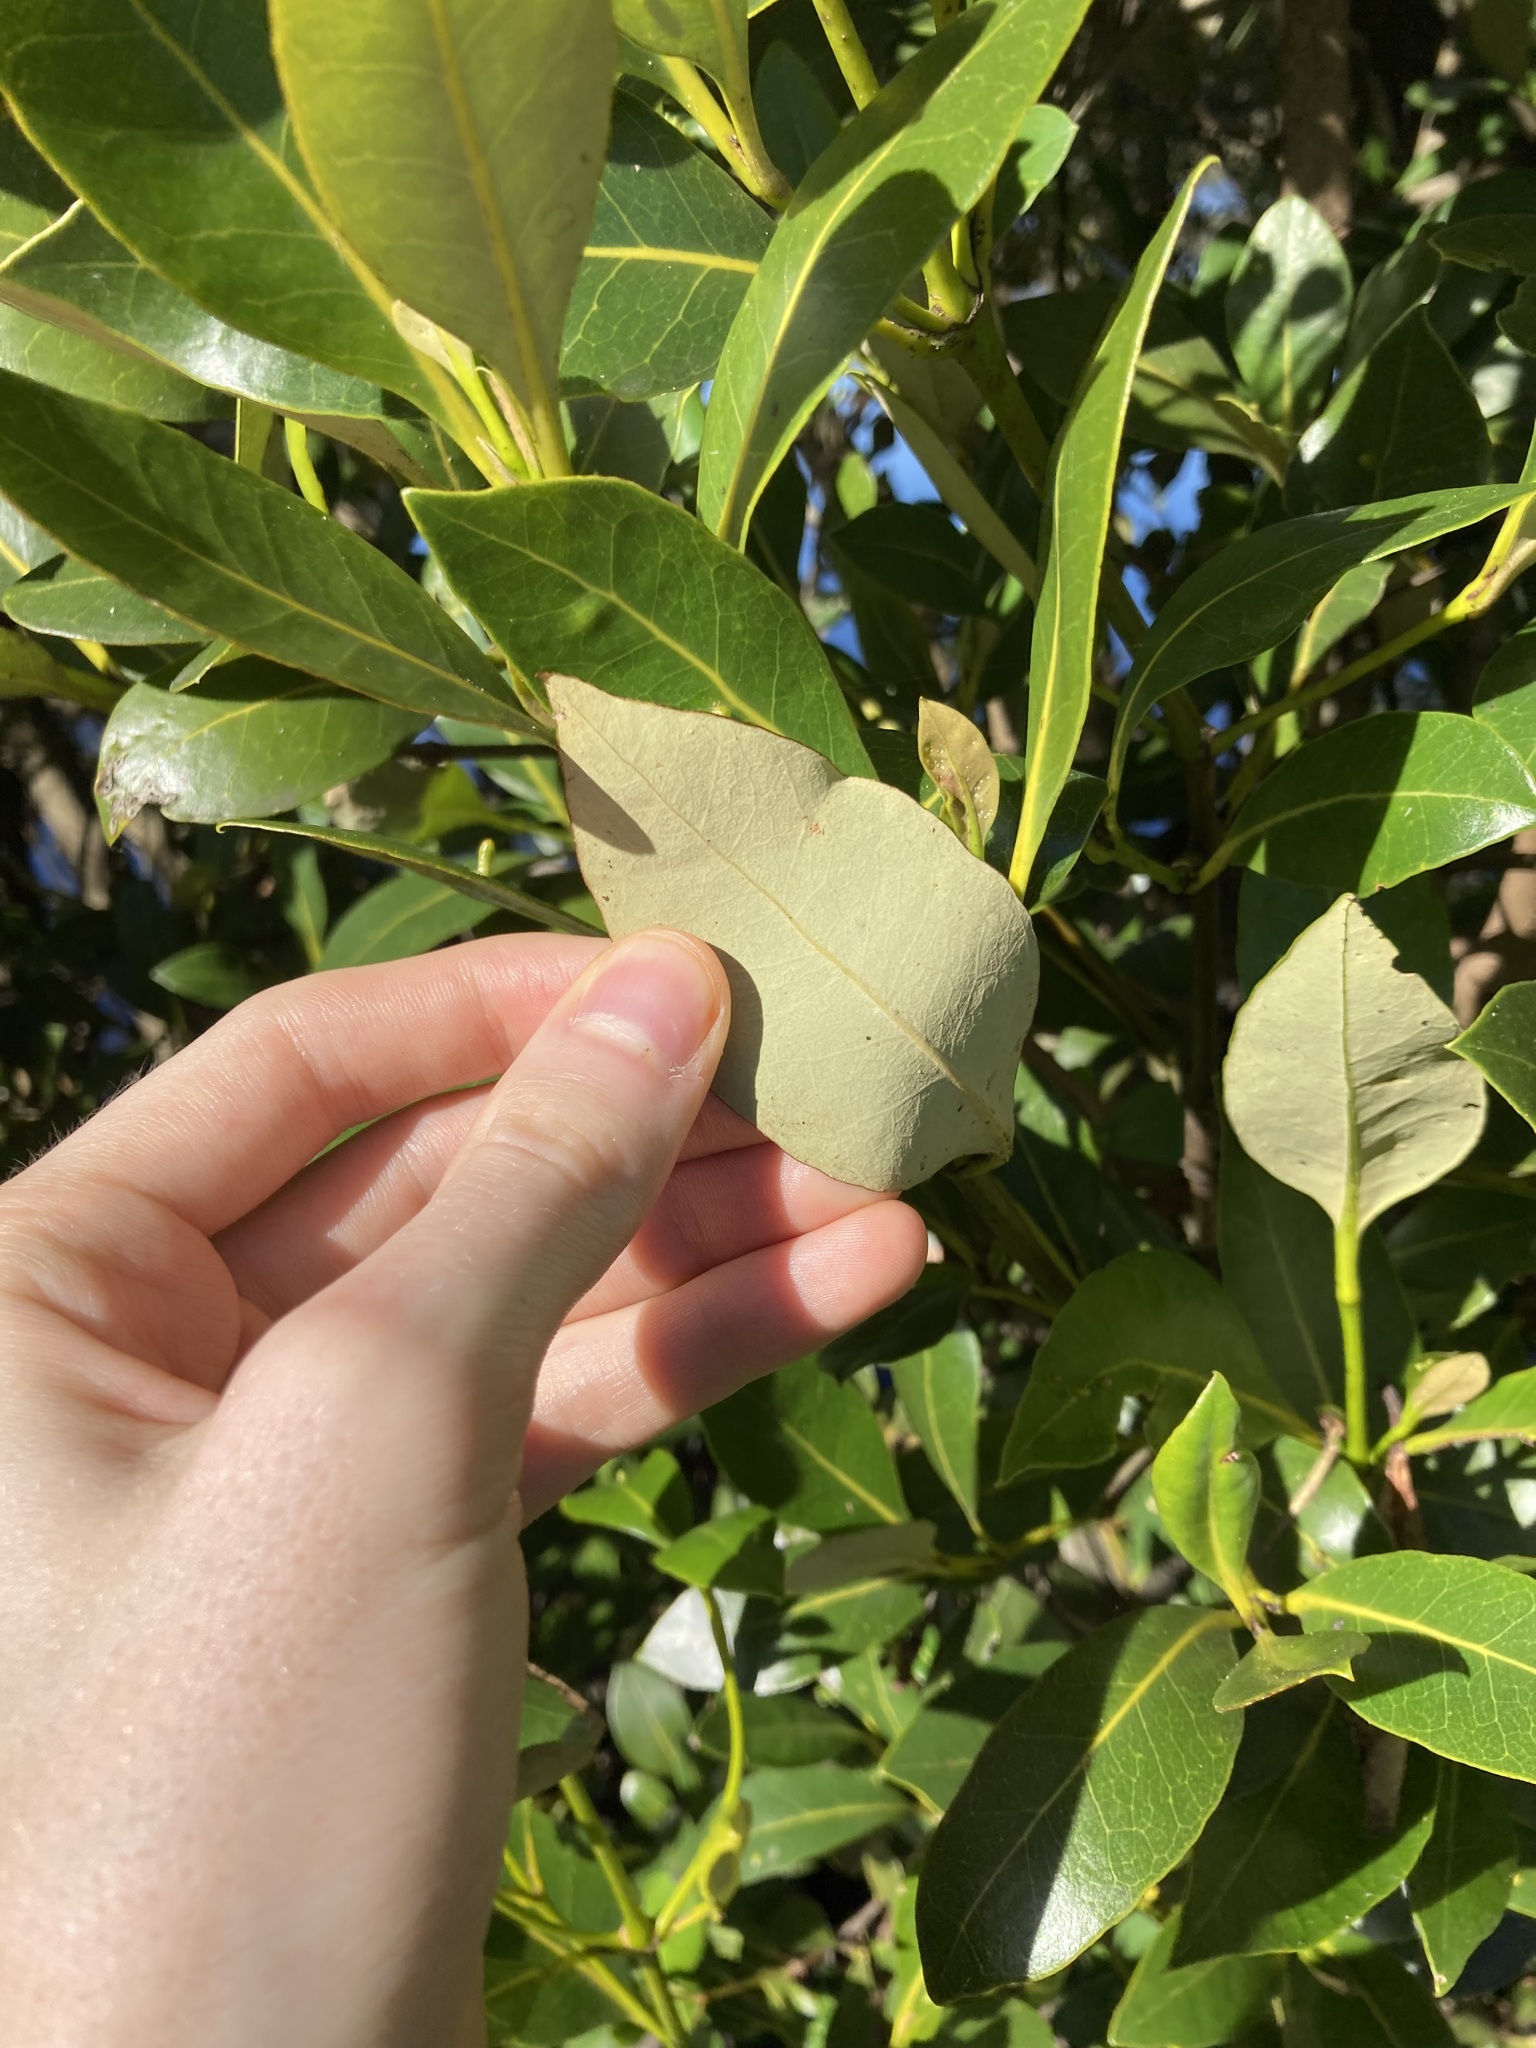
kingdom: Plantae
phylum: Tracheophyta
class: Magnoliopsida
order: Lamiales
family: Acanthaceae
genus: Avicennia
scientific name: Avicennia marina
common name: Gray mangrove
